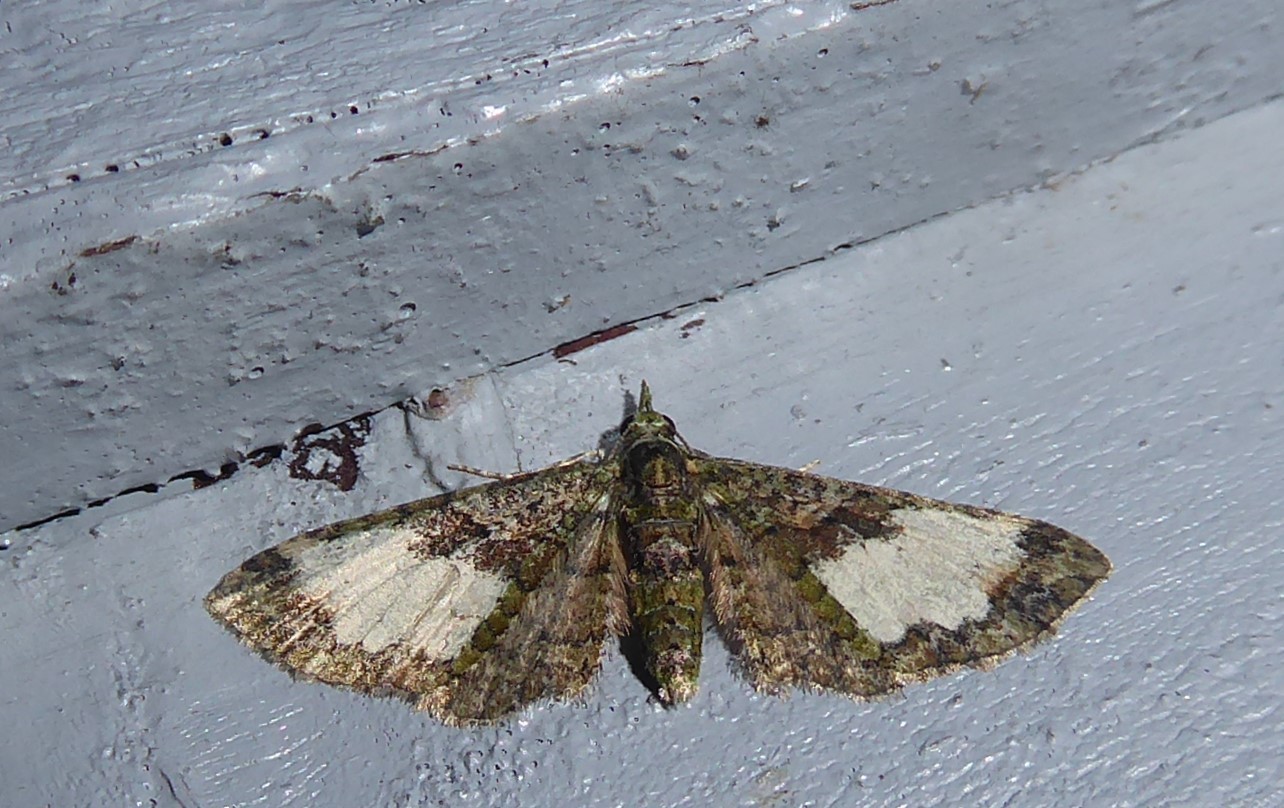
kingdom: Animalia
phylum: Arthropoda
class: Insecta
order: Lepidoptera
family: Geometridae
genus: Idaea
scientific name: Idaea mutanda
